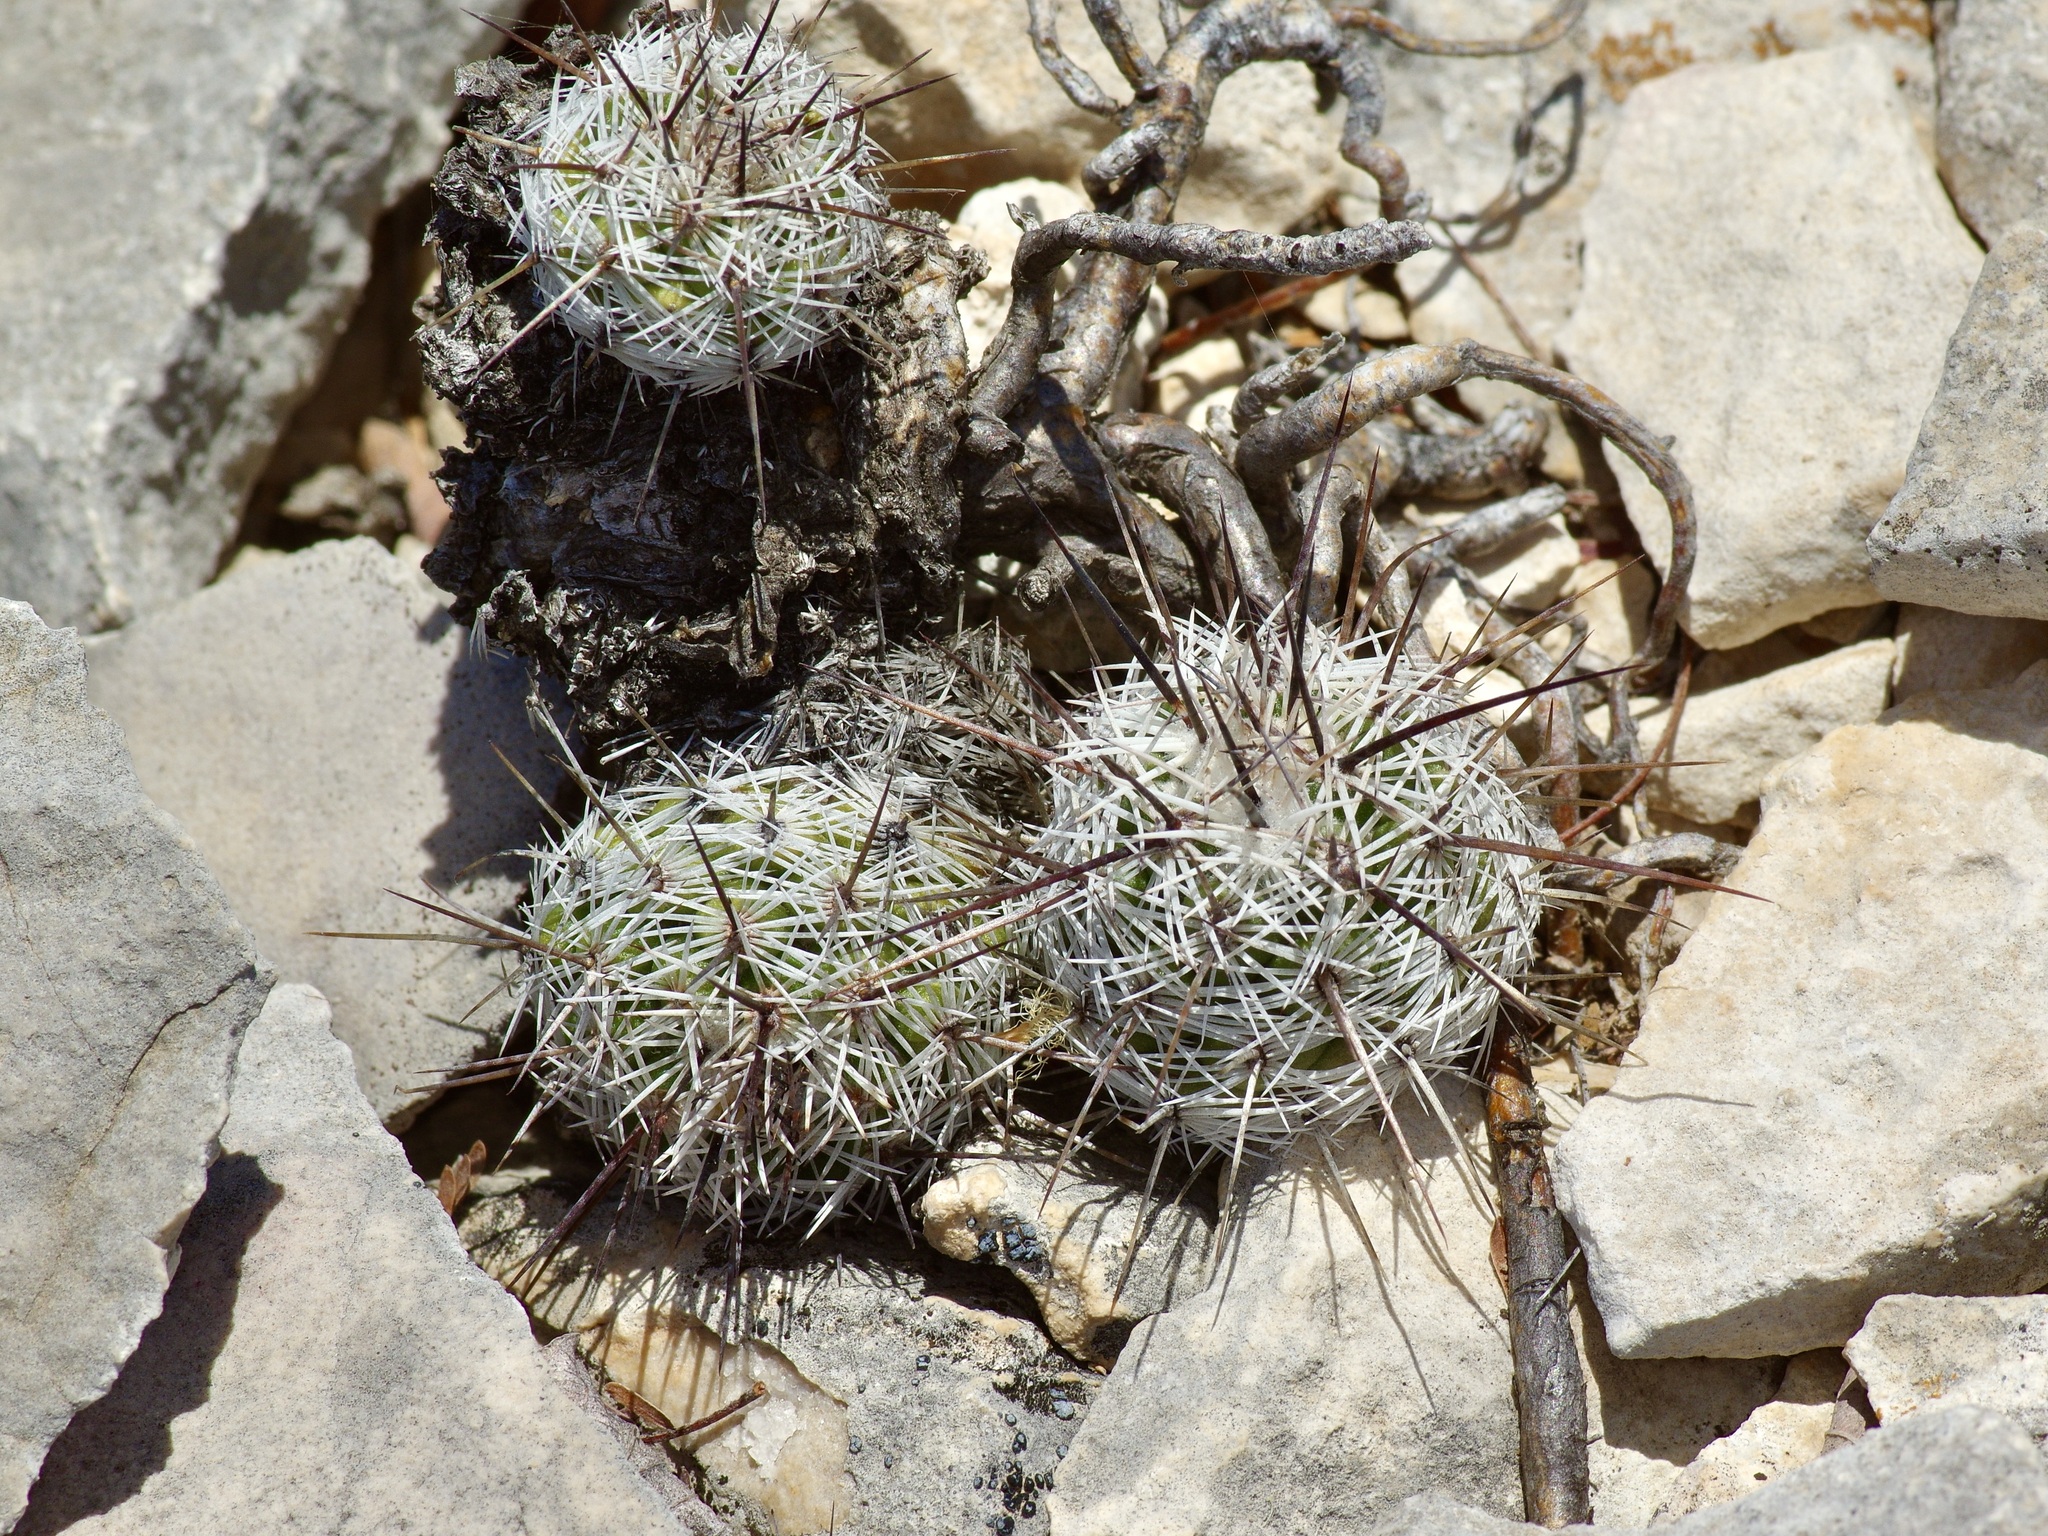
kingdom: Plantae
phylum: Tracheophyta
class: Magnoliopsida
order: Caryophyllales
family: Cactaceae
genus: Cochemiea
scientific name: Cochemiea conoidea
